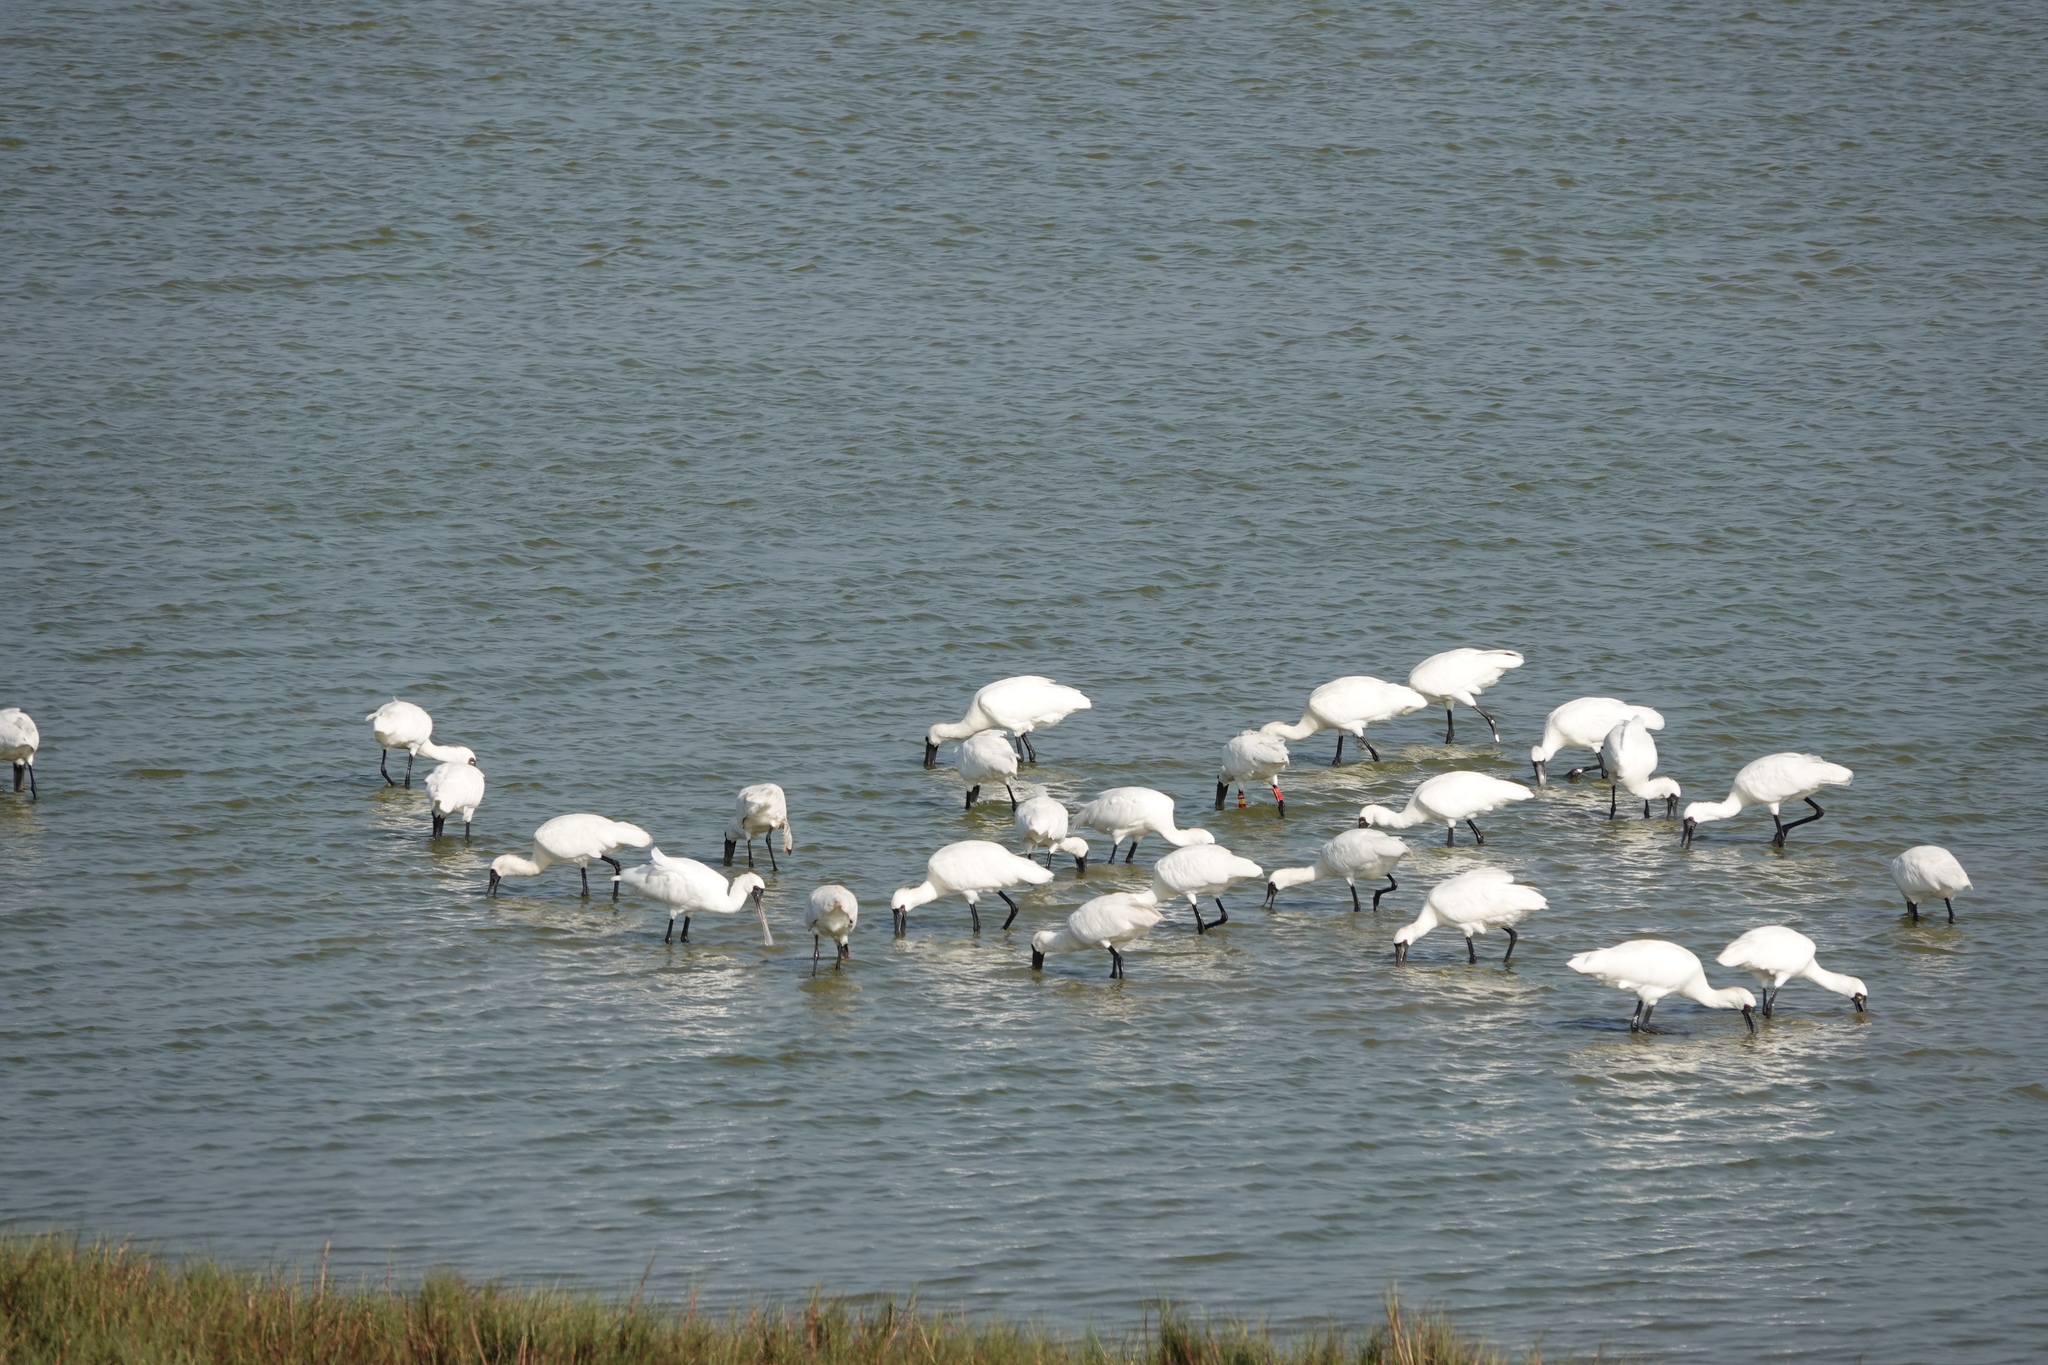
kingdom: Animalia
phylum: Chordata
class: Aves
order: Pelecaniformes
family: Threskiornithidae
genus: Platalea
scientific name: Platalea minor
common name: Black-faced spoonbill
